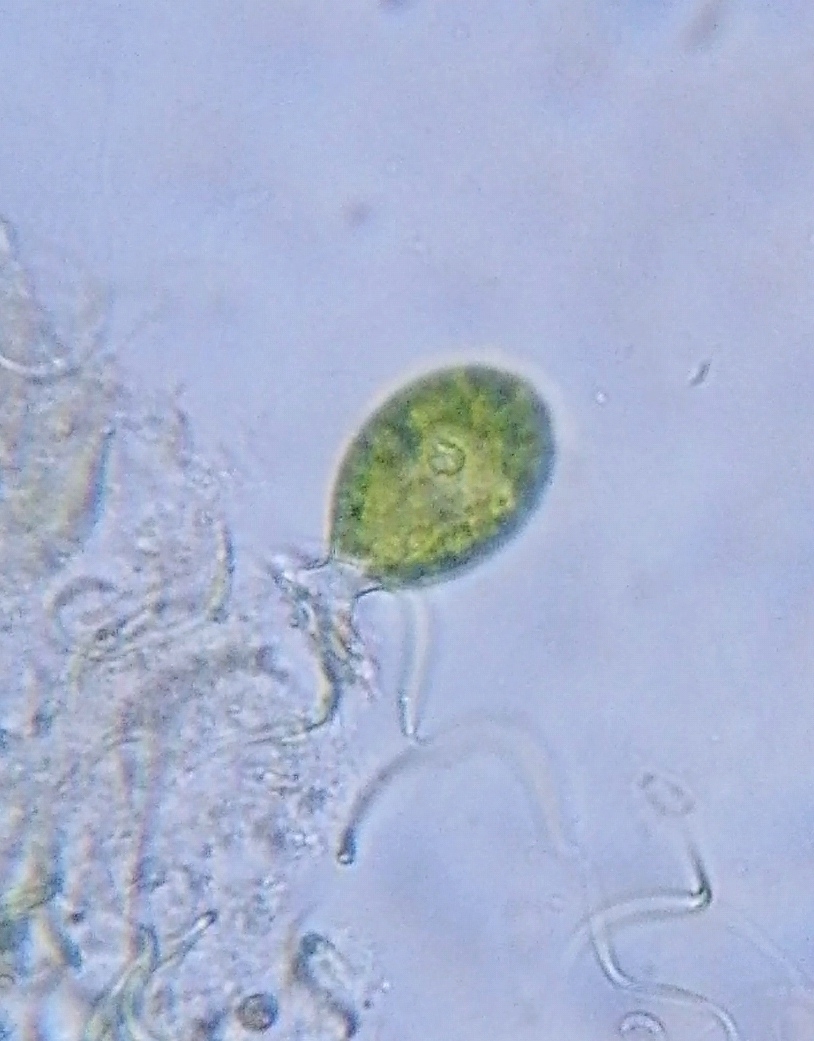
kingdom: Plantae
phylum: Chlorophyta
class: Chlorophyceae
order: Oedogoniales
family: Oedogoniaceae
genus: Oedogonium
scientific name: Oedogonium
